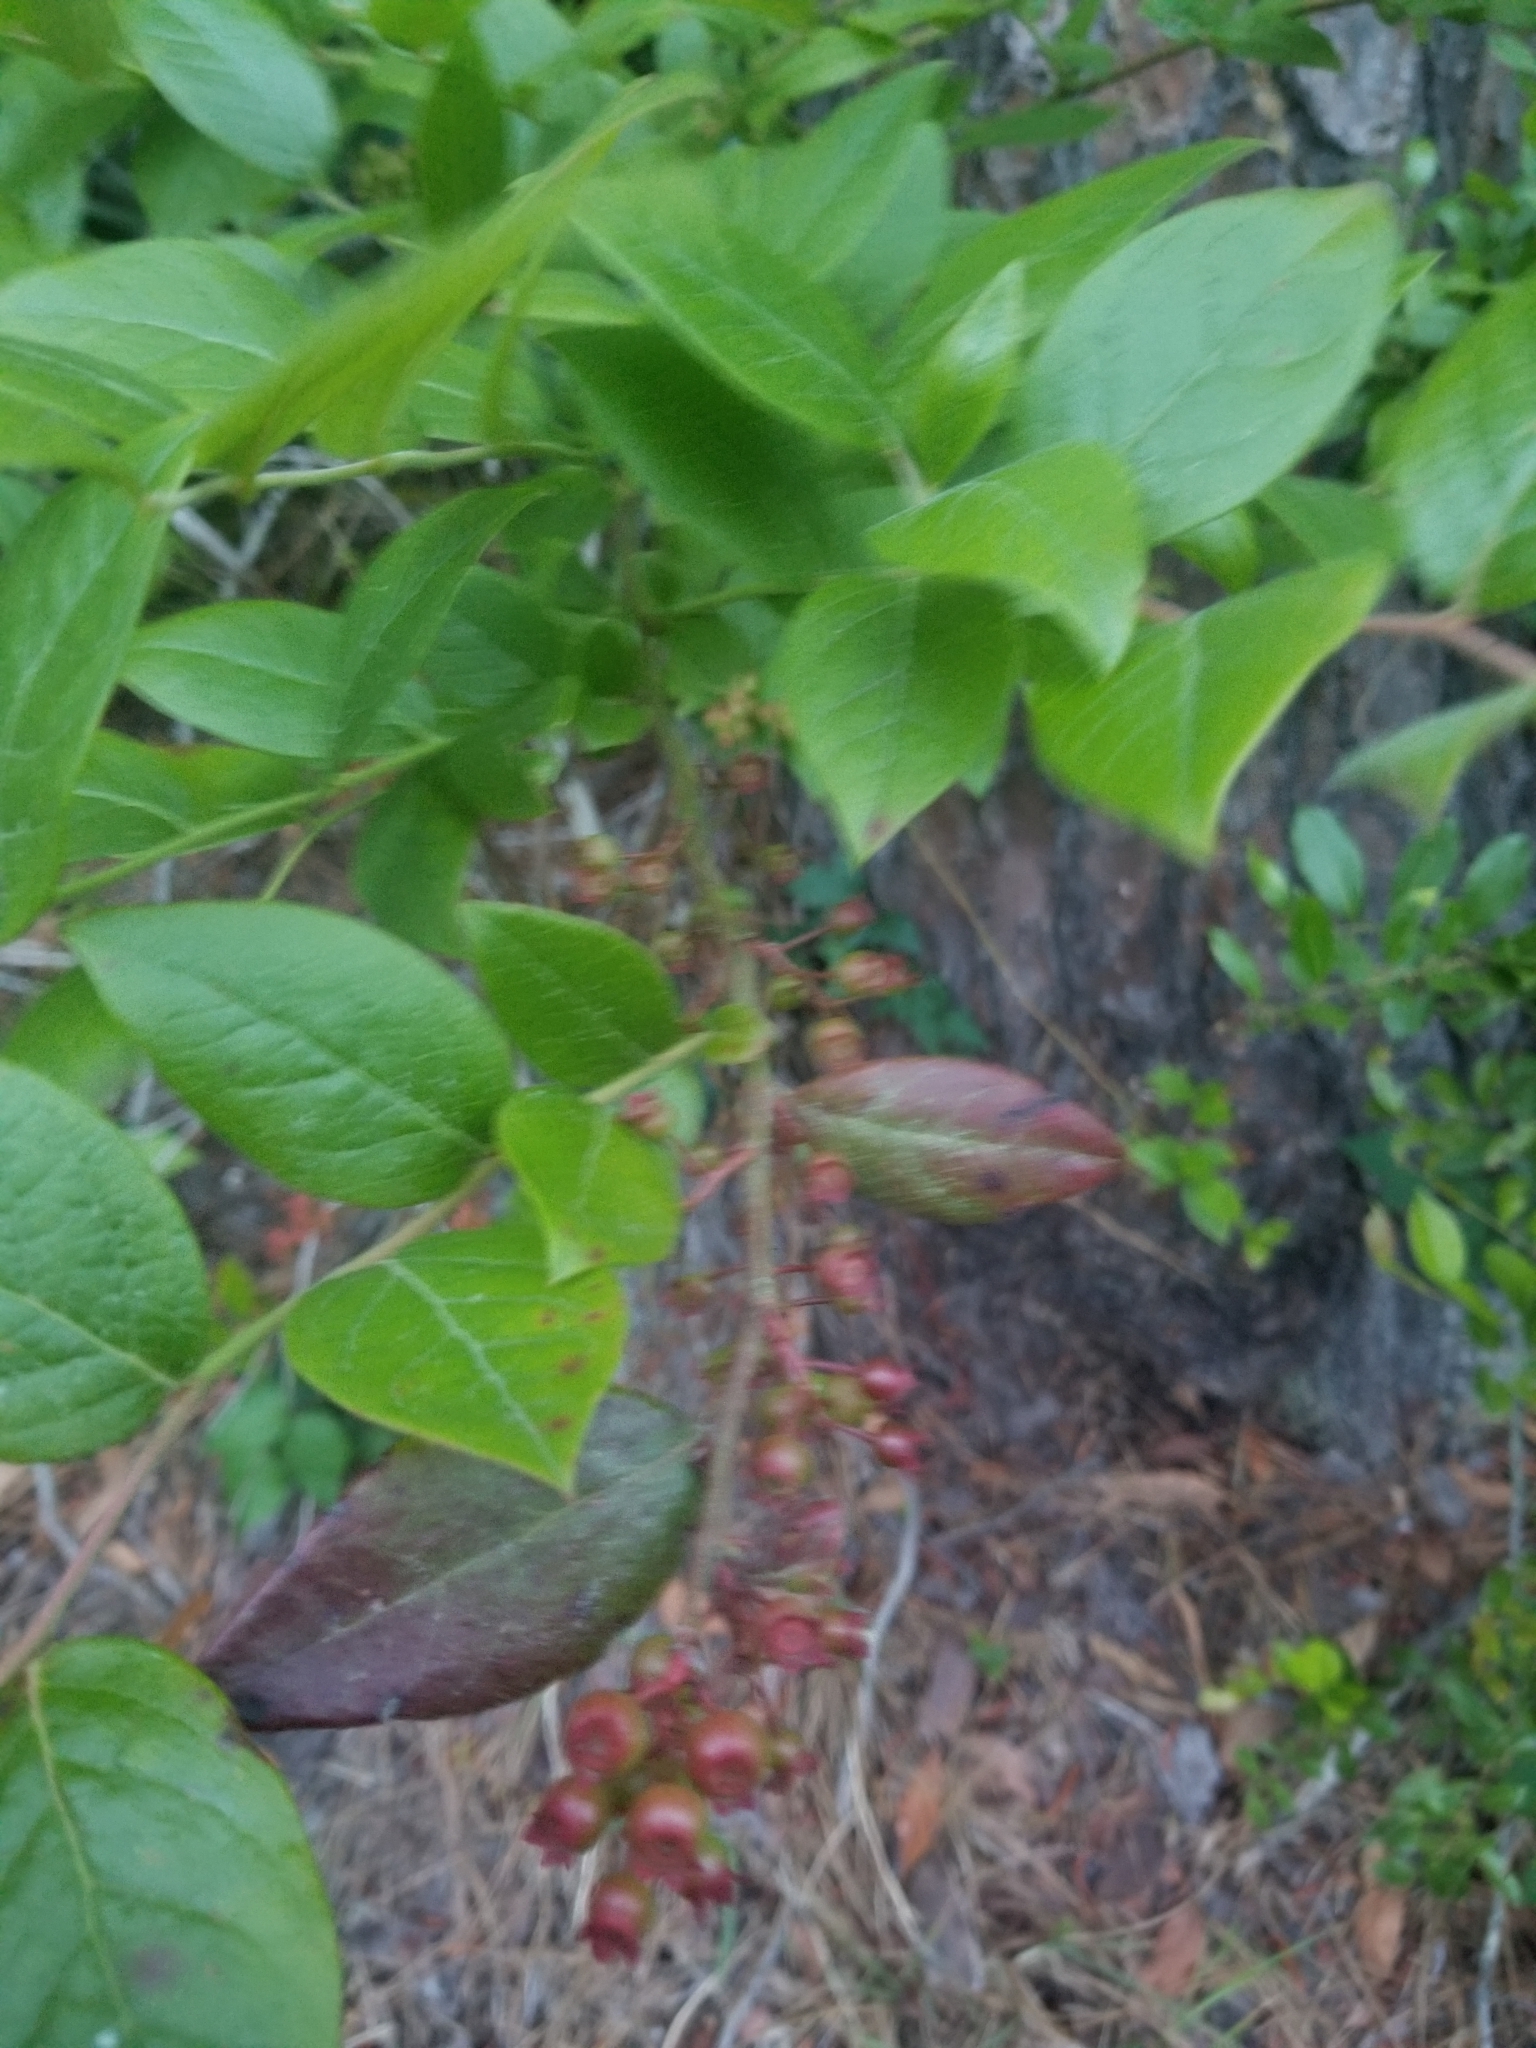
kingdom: Plantae
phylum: Tracheophyta
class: Magnoliopsida
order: Ericales
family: Ericaceae
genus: Vaccinium
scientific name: Vaccinium corymbosum
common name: Blueberry
